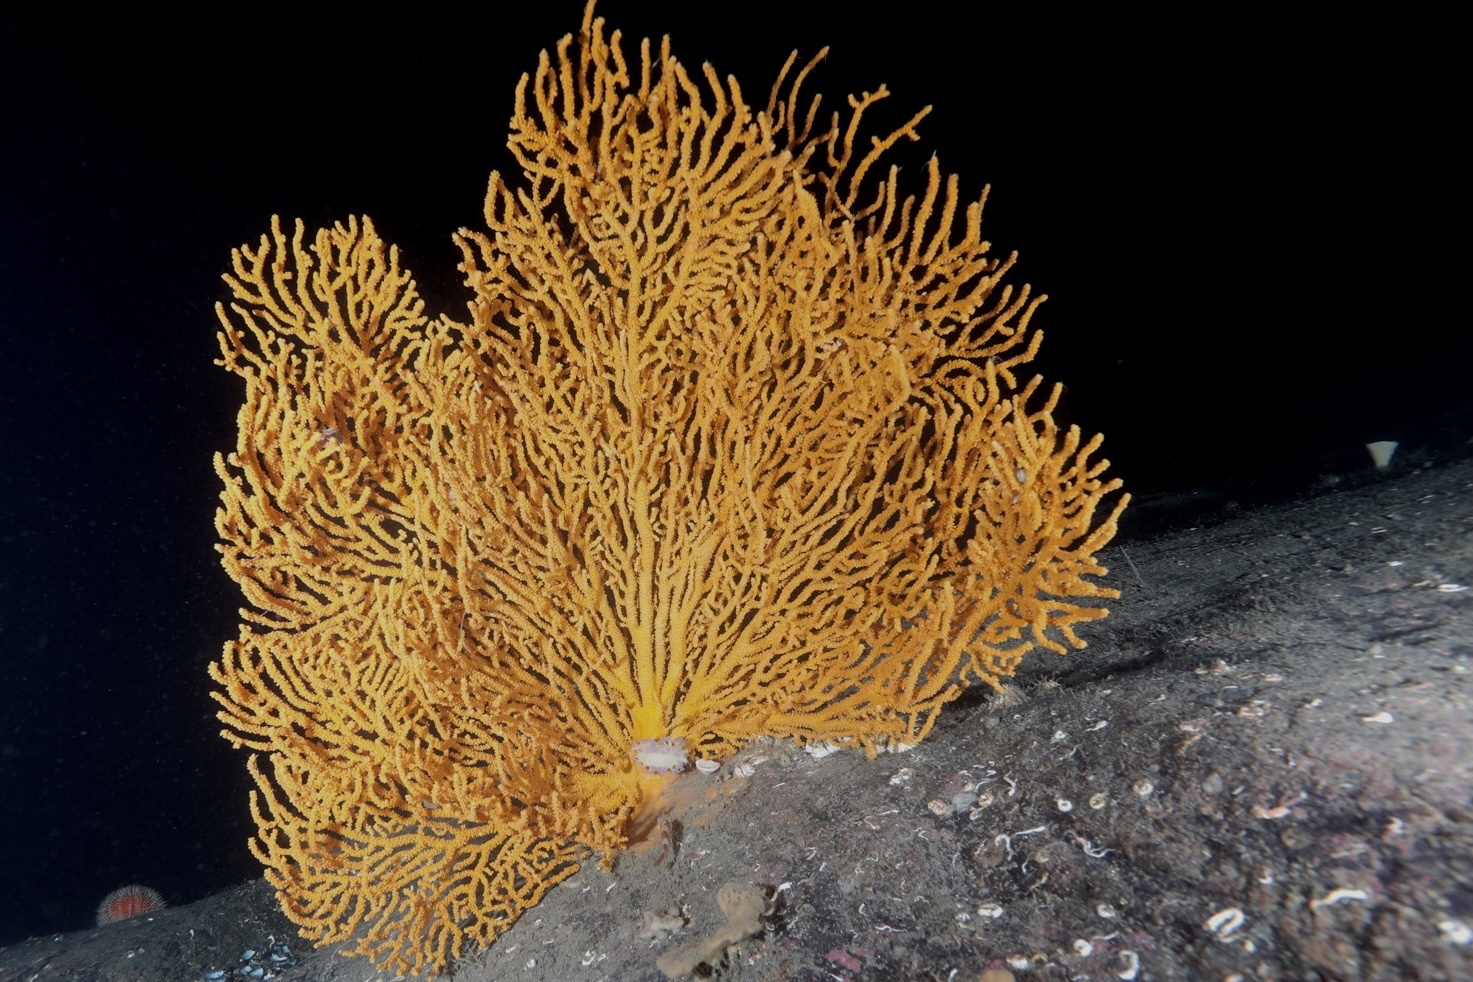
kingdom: Animalia
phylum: Mollusca
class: Gastropoda
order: Nudibranchia
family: Tritoniidae
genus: Tritonia
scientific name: Tritonia griegi
